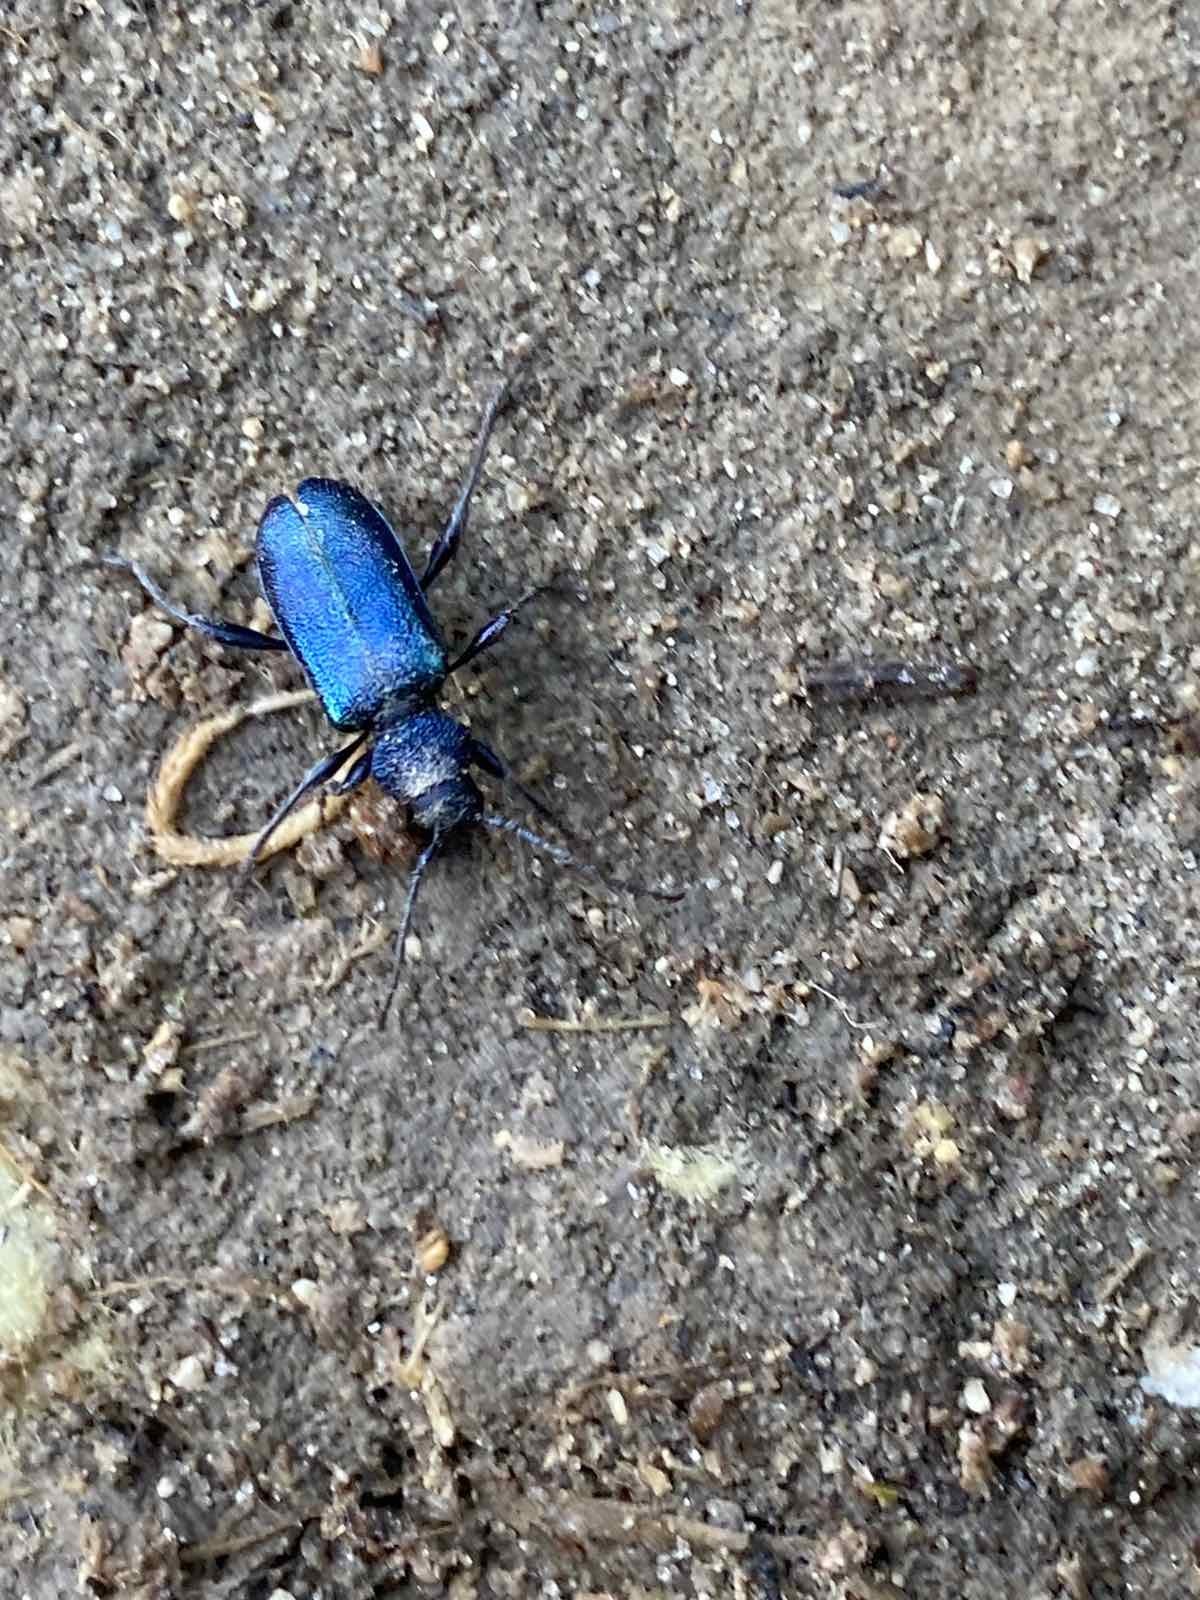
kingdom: Animalia
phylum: Arthropoda
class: Insecta
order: Coleoptera
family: Cerambycidae
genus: Callidium
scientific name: Callidium violaceum
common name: Violet tanbark beetle
